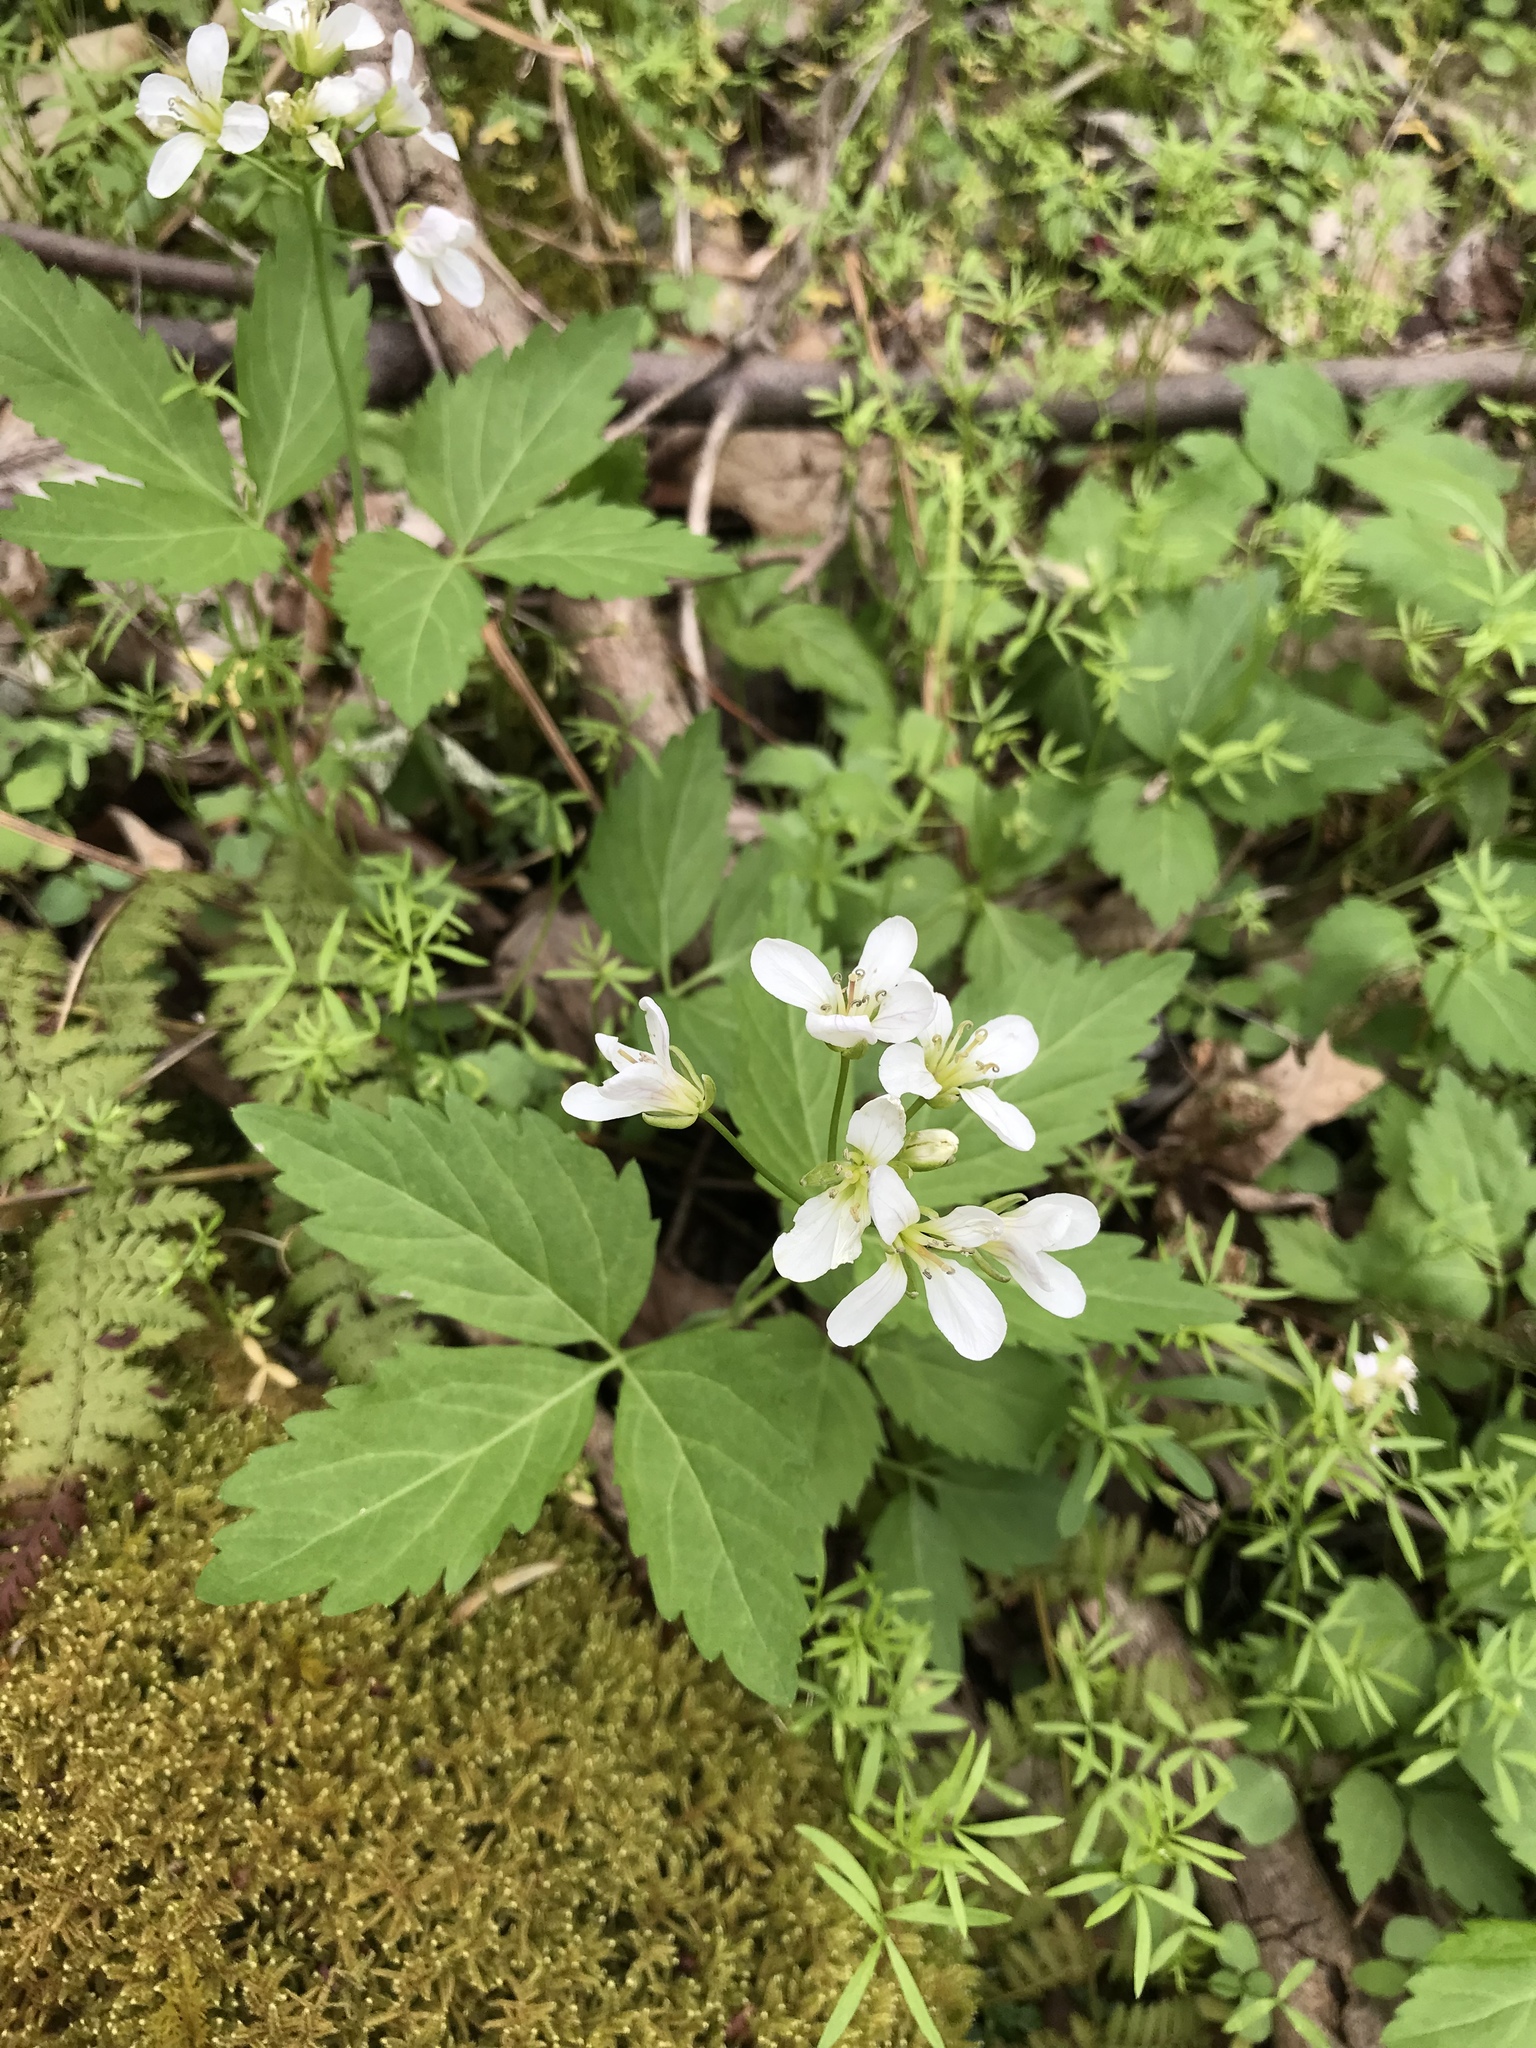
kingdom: Plantae
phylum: Tracheophyta
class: Magnoliopsida
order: Brassicales
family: Brassicaceae
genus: Cardamine
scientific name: Cardamine diphylla
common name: Broad-leaved toothwort
